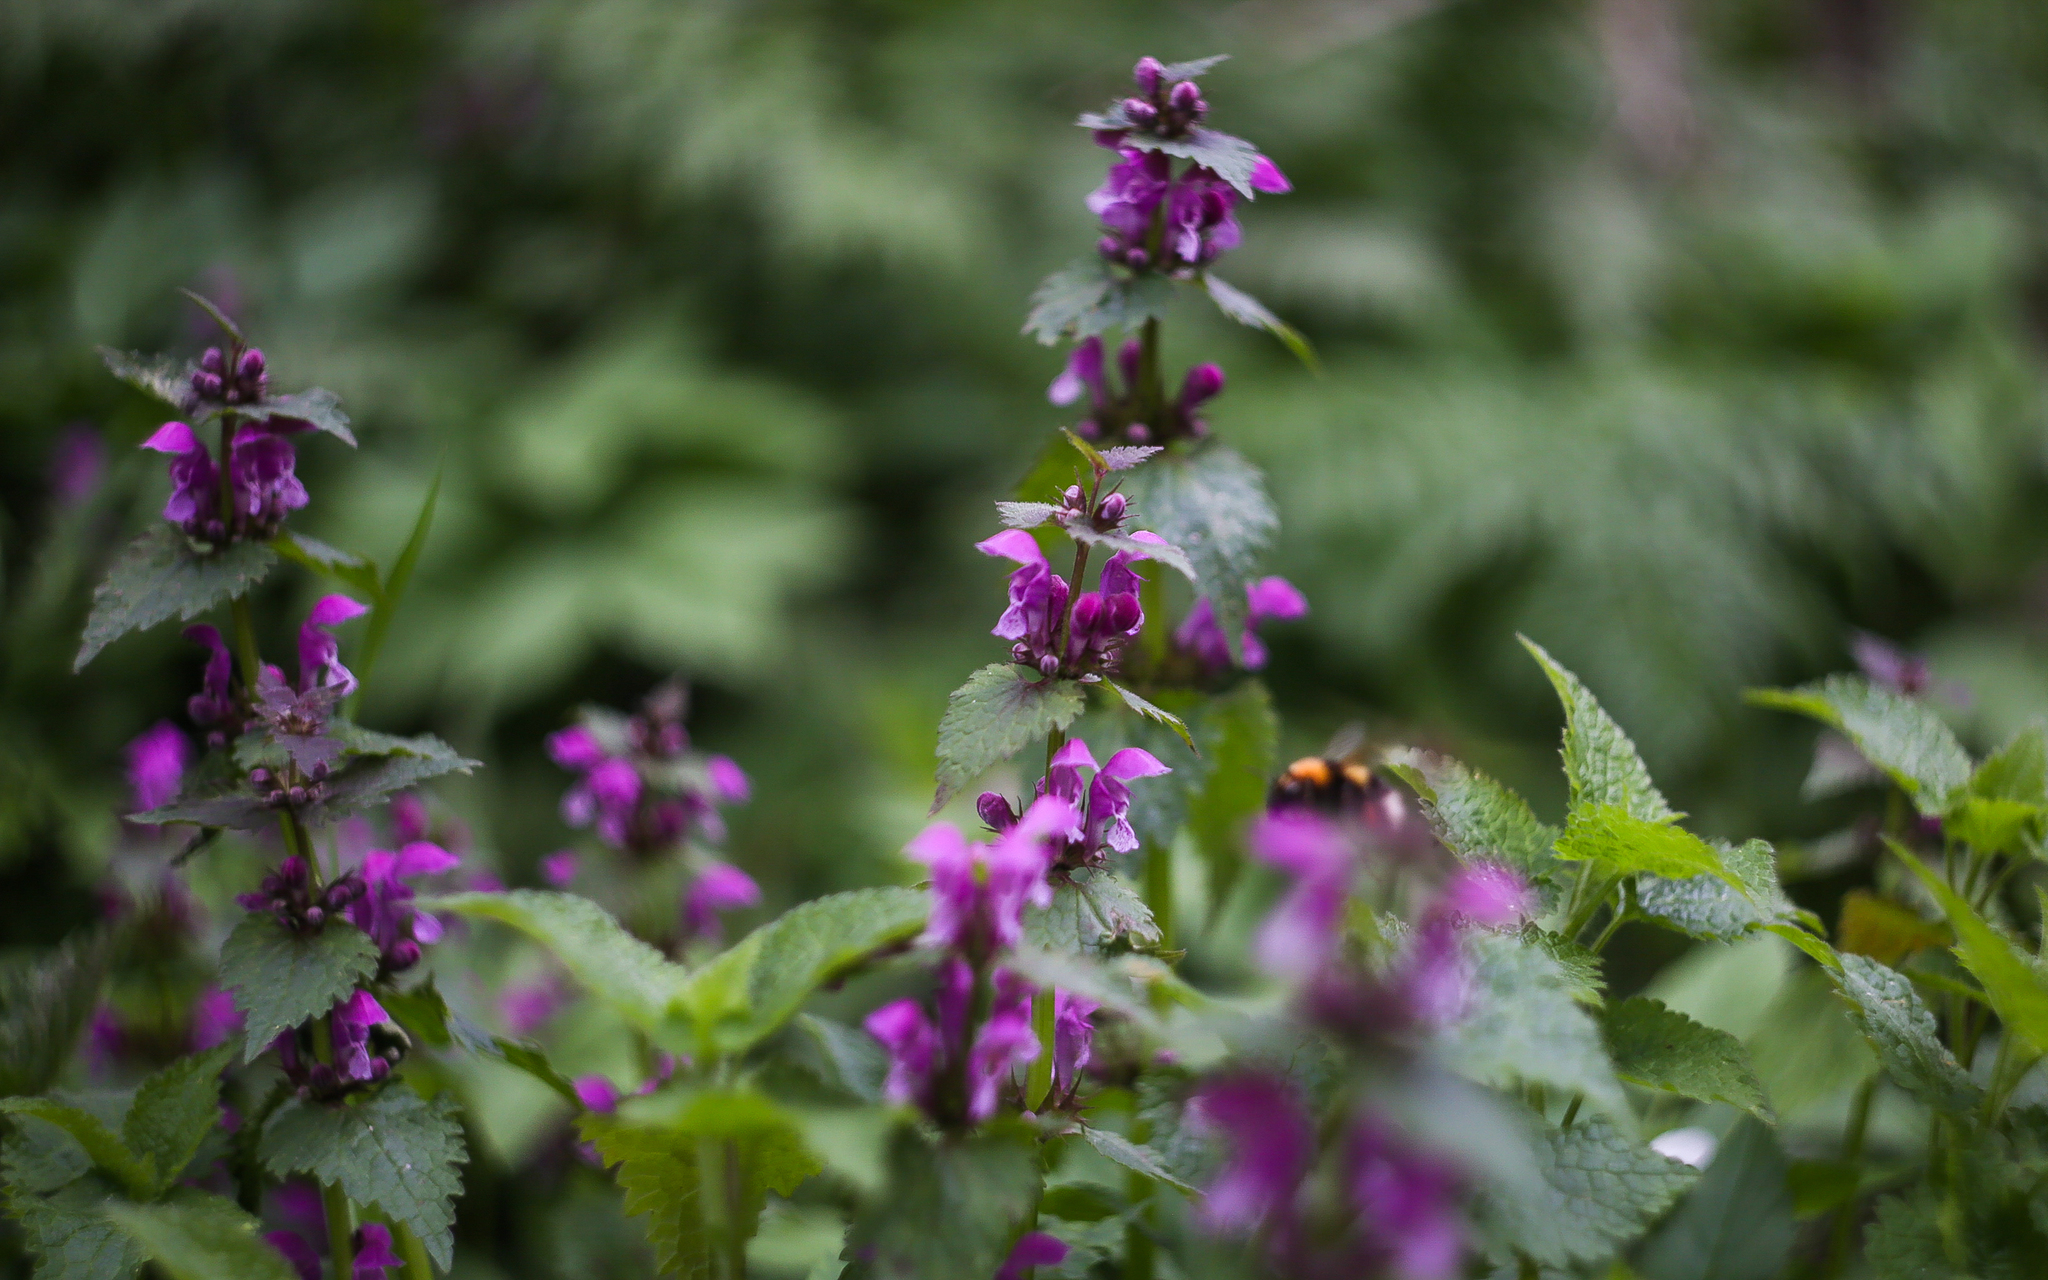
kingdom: Plantae
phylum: Tracheophyta
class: Magnoliopsida
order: Lamiales
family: Lamiaceae
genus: Lamium
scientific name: Lamium maculatum
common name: Spotted dead-nettle
